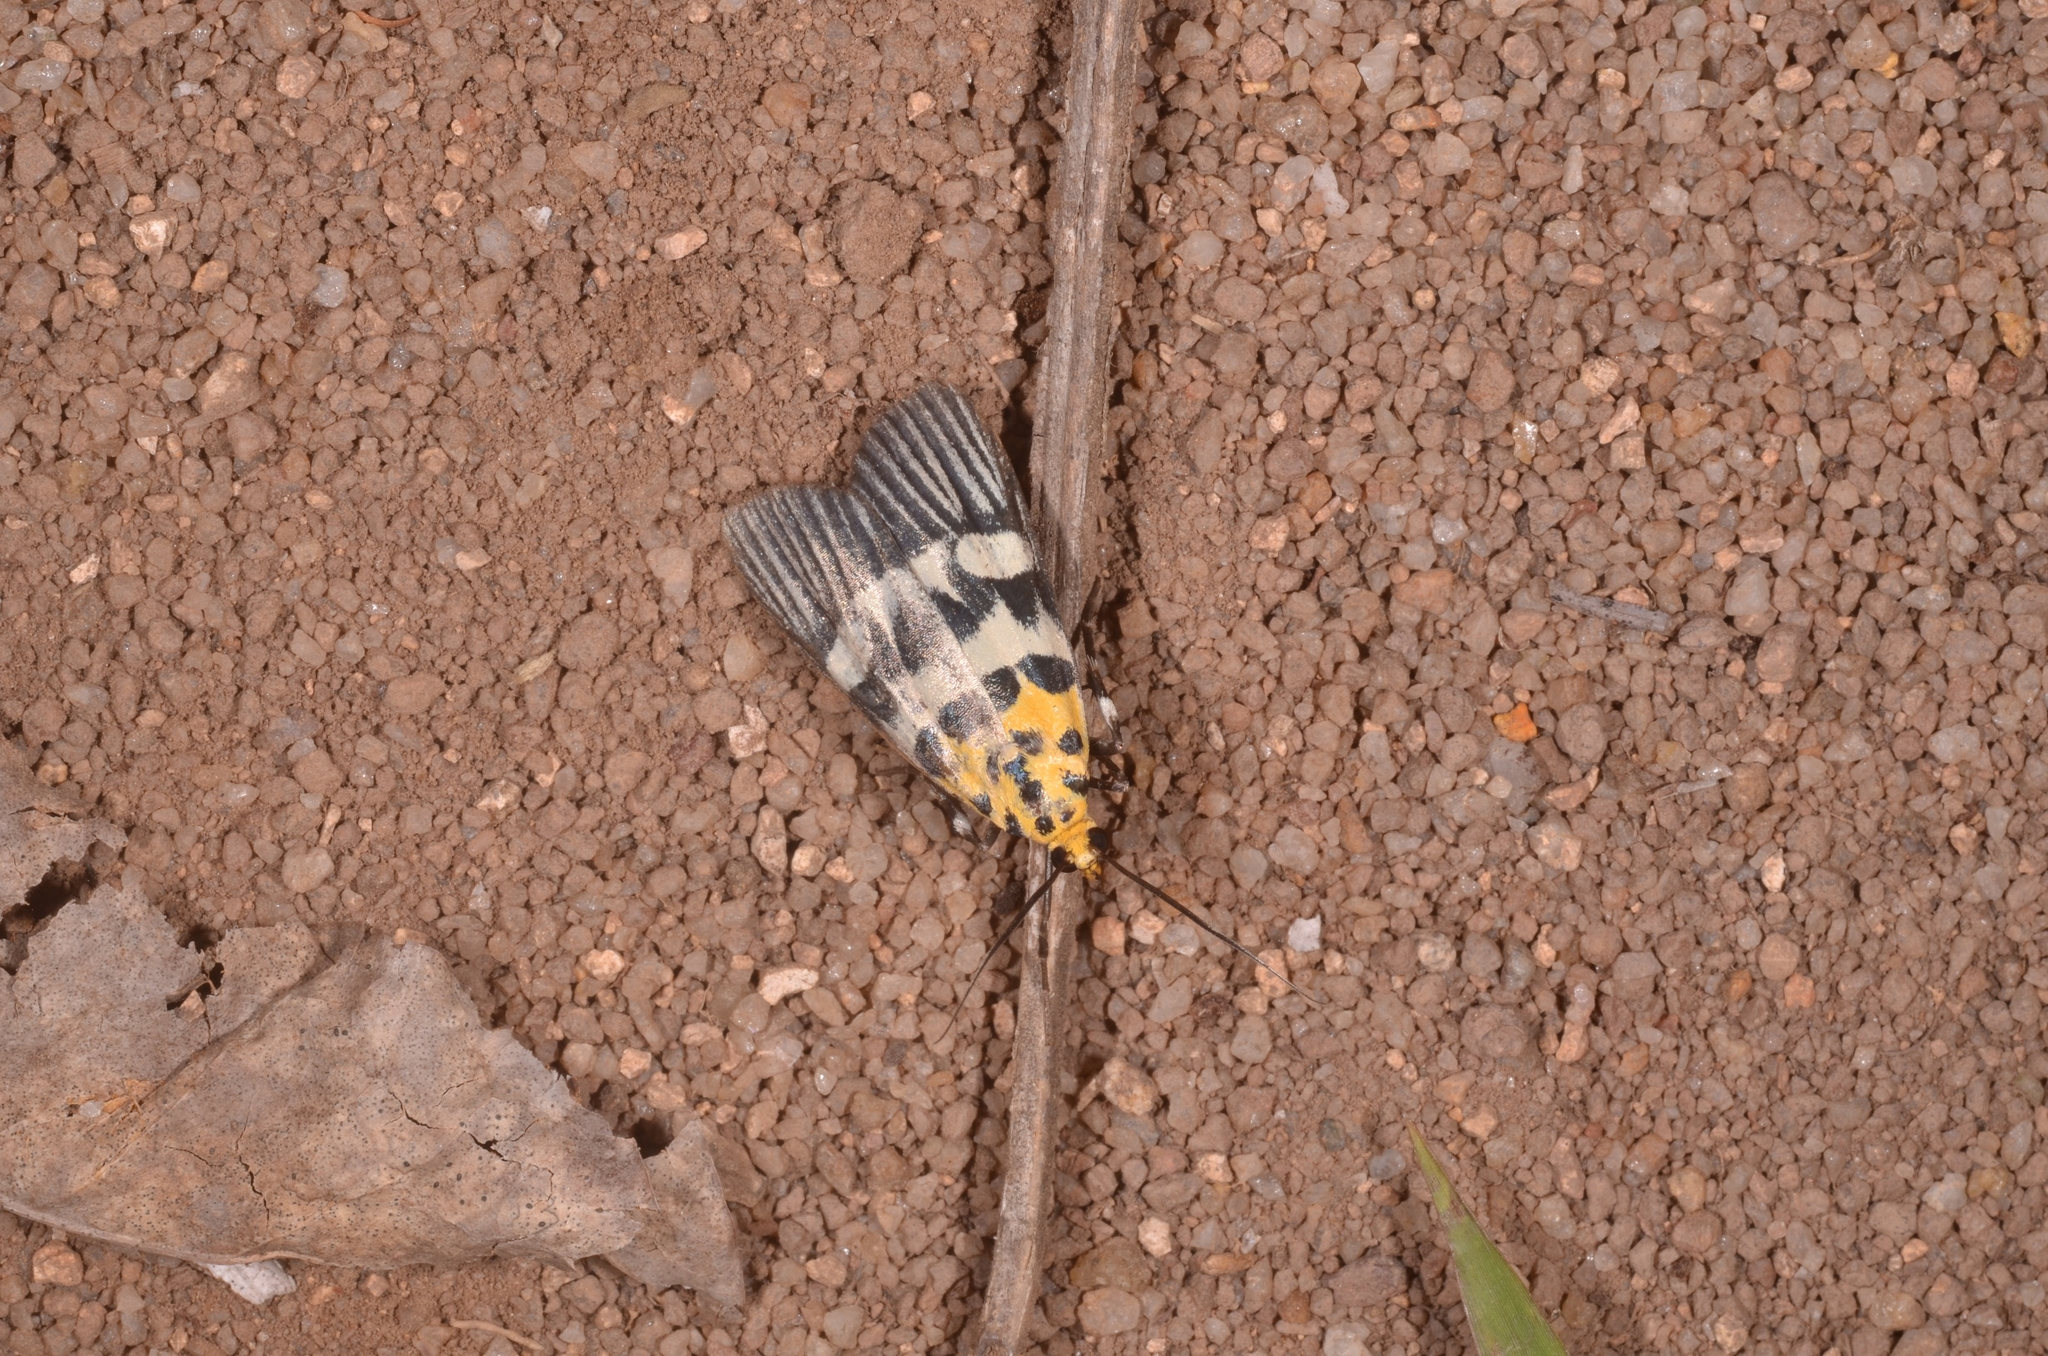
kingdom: Animalia
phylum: Arthropoda
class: Insecta
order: Lepidoptera
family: Pyralidae
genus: Vitessa
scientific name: Vitessa suradeva
